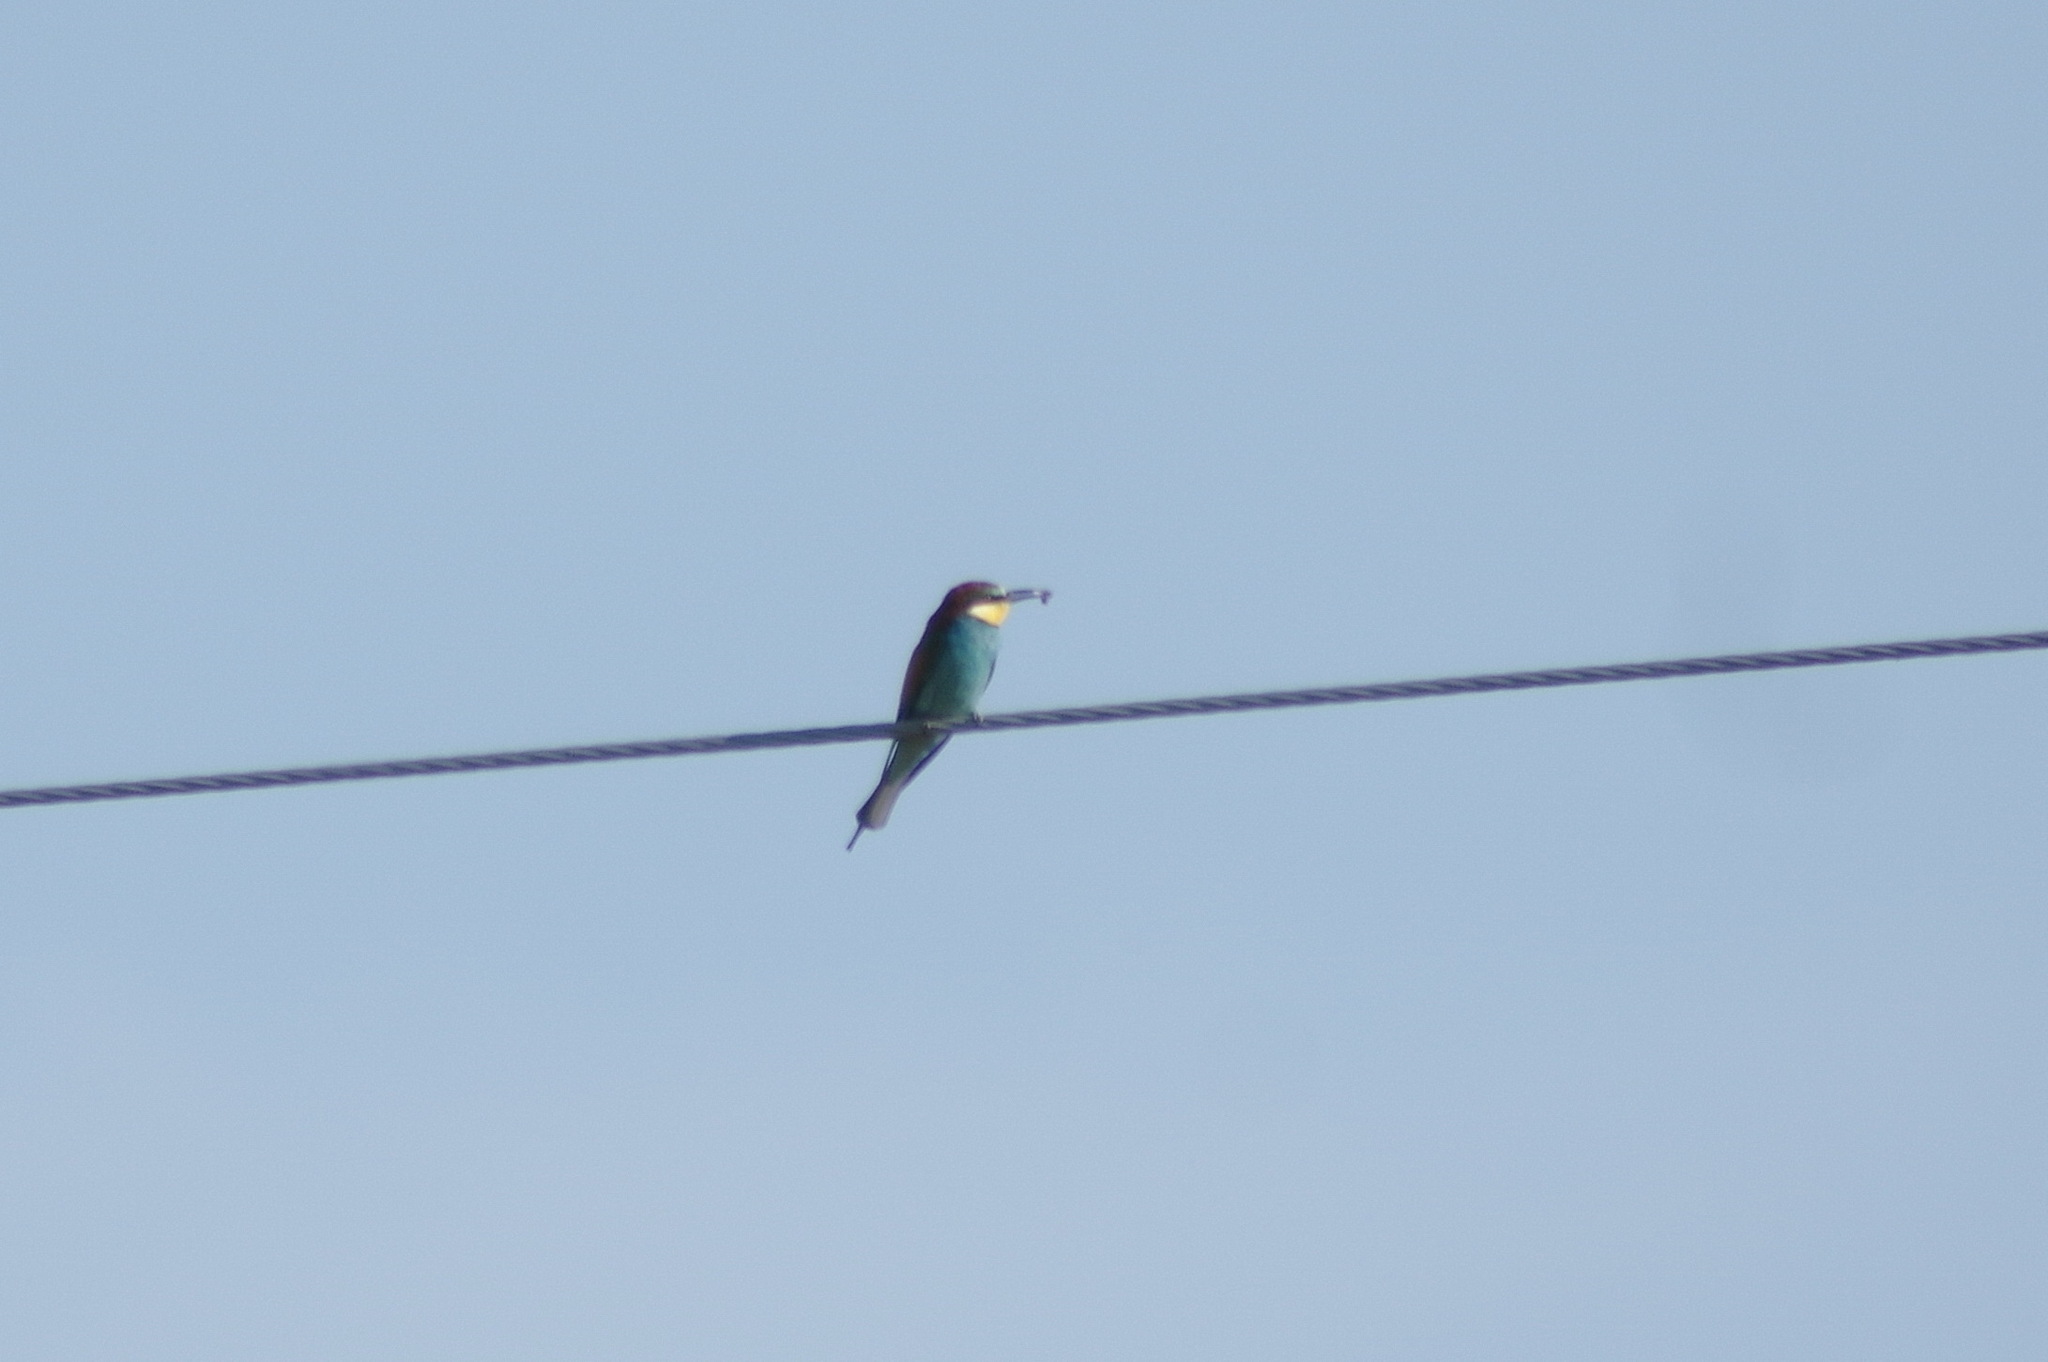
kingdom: Animalia
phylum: Chordata
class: Aves
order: Coraciiformes
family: Meropidae
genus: Merops
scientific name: Merops apiaster
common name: European bee-eater
